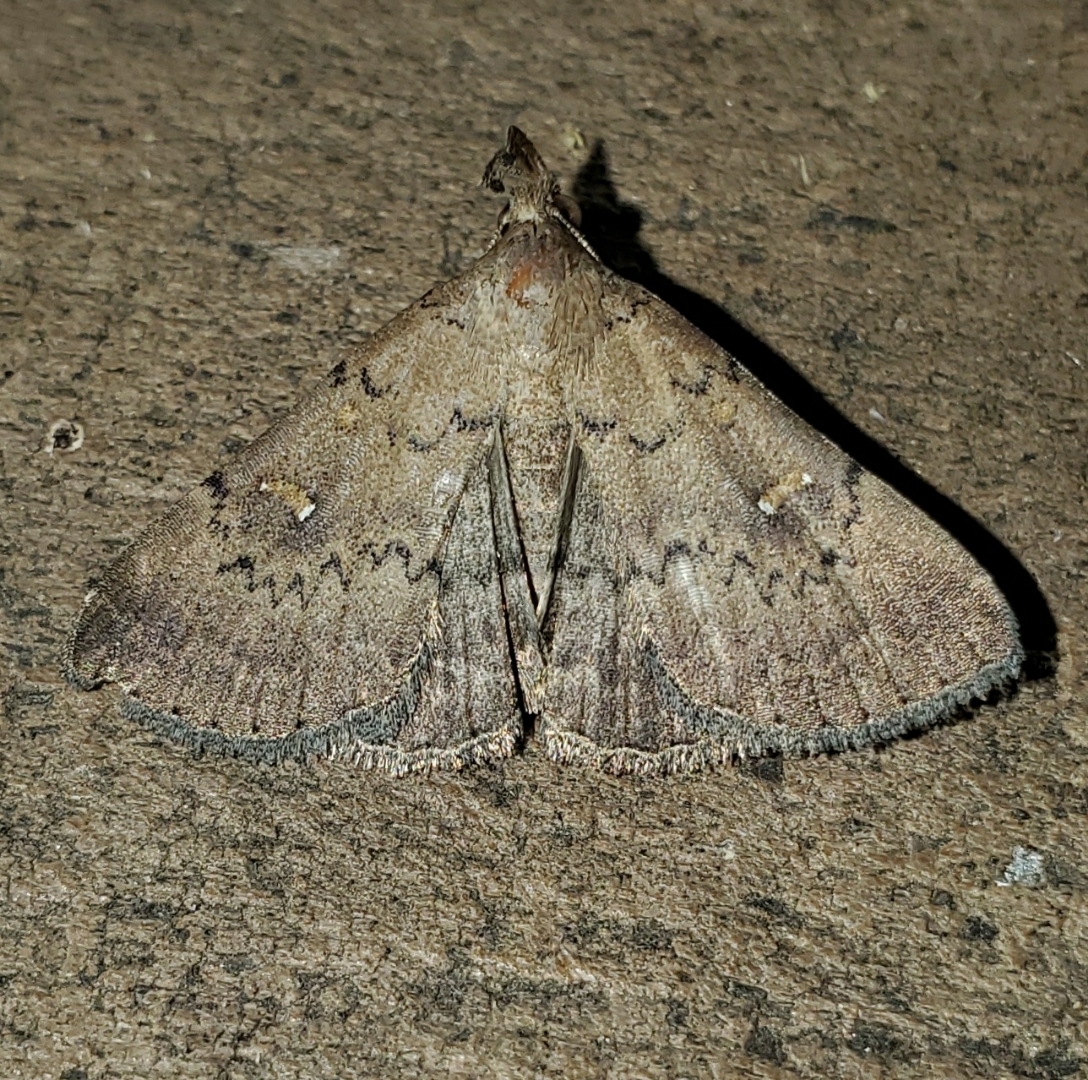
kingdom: Animalia
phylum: Arthropoda
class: Insecta
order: Lepidoptera
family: Erebidae
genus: Hypenula
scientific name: Hypenula cacuminalis
